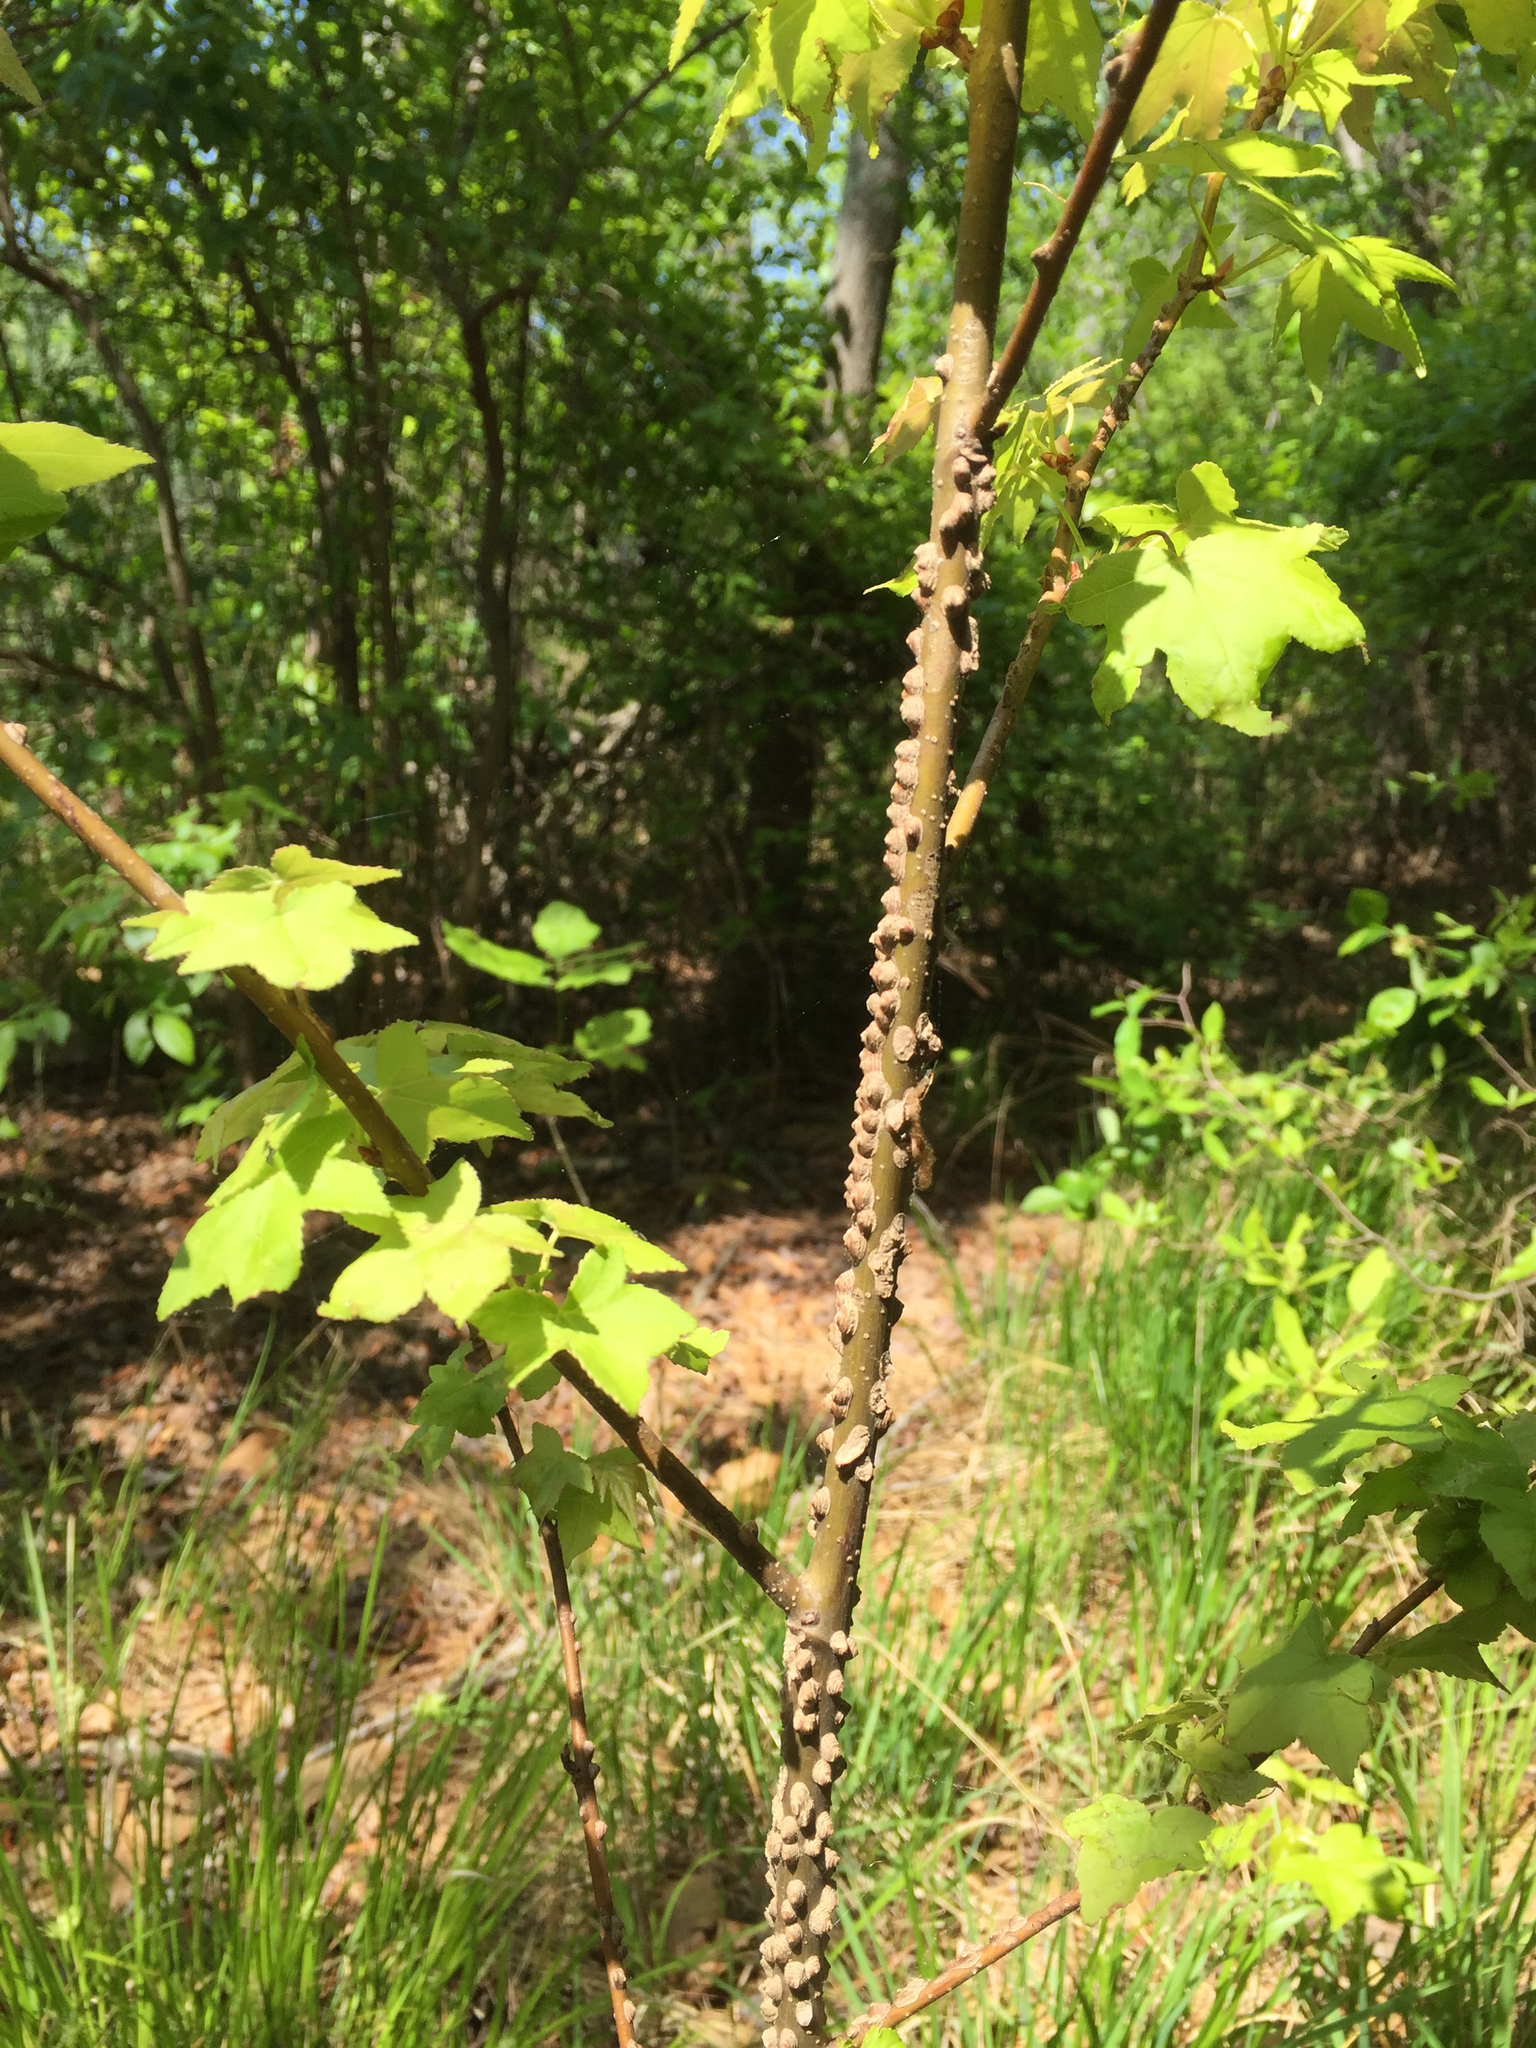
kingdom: Plantae
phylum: Tracheophyta
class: Magnoliopsida
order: Saxifragales
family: Altingiaceae
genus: Liquidambar
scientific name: Liquidambar styraciflua
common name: Sweet gum
